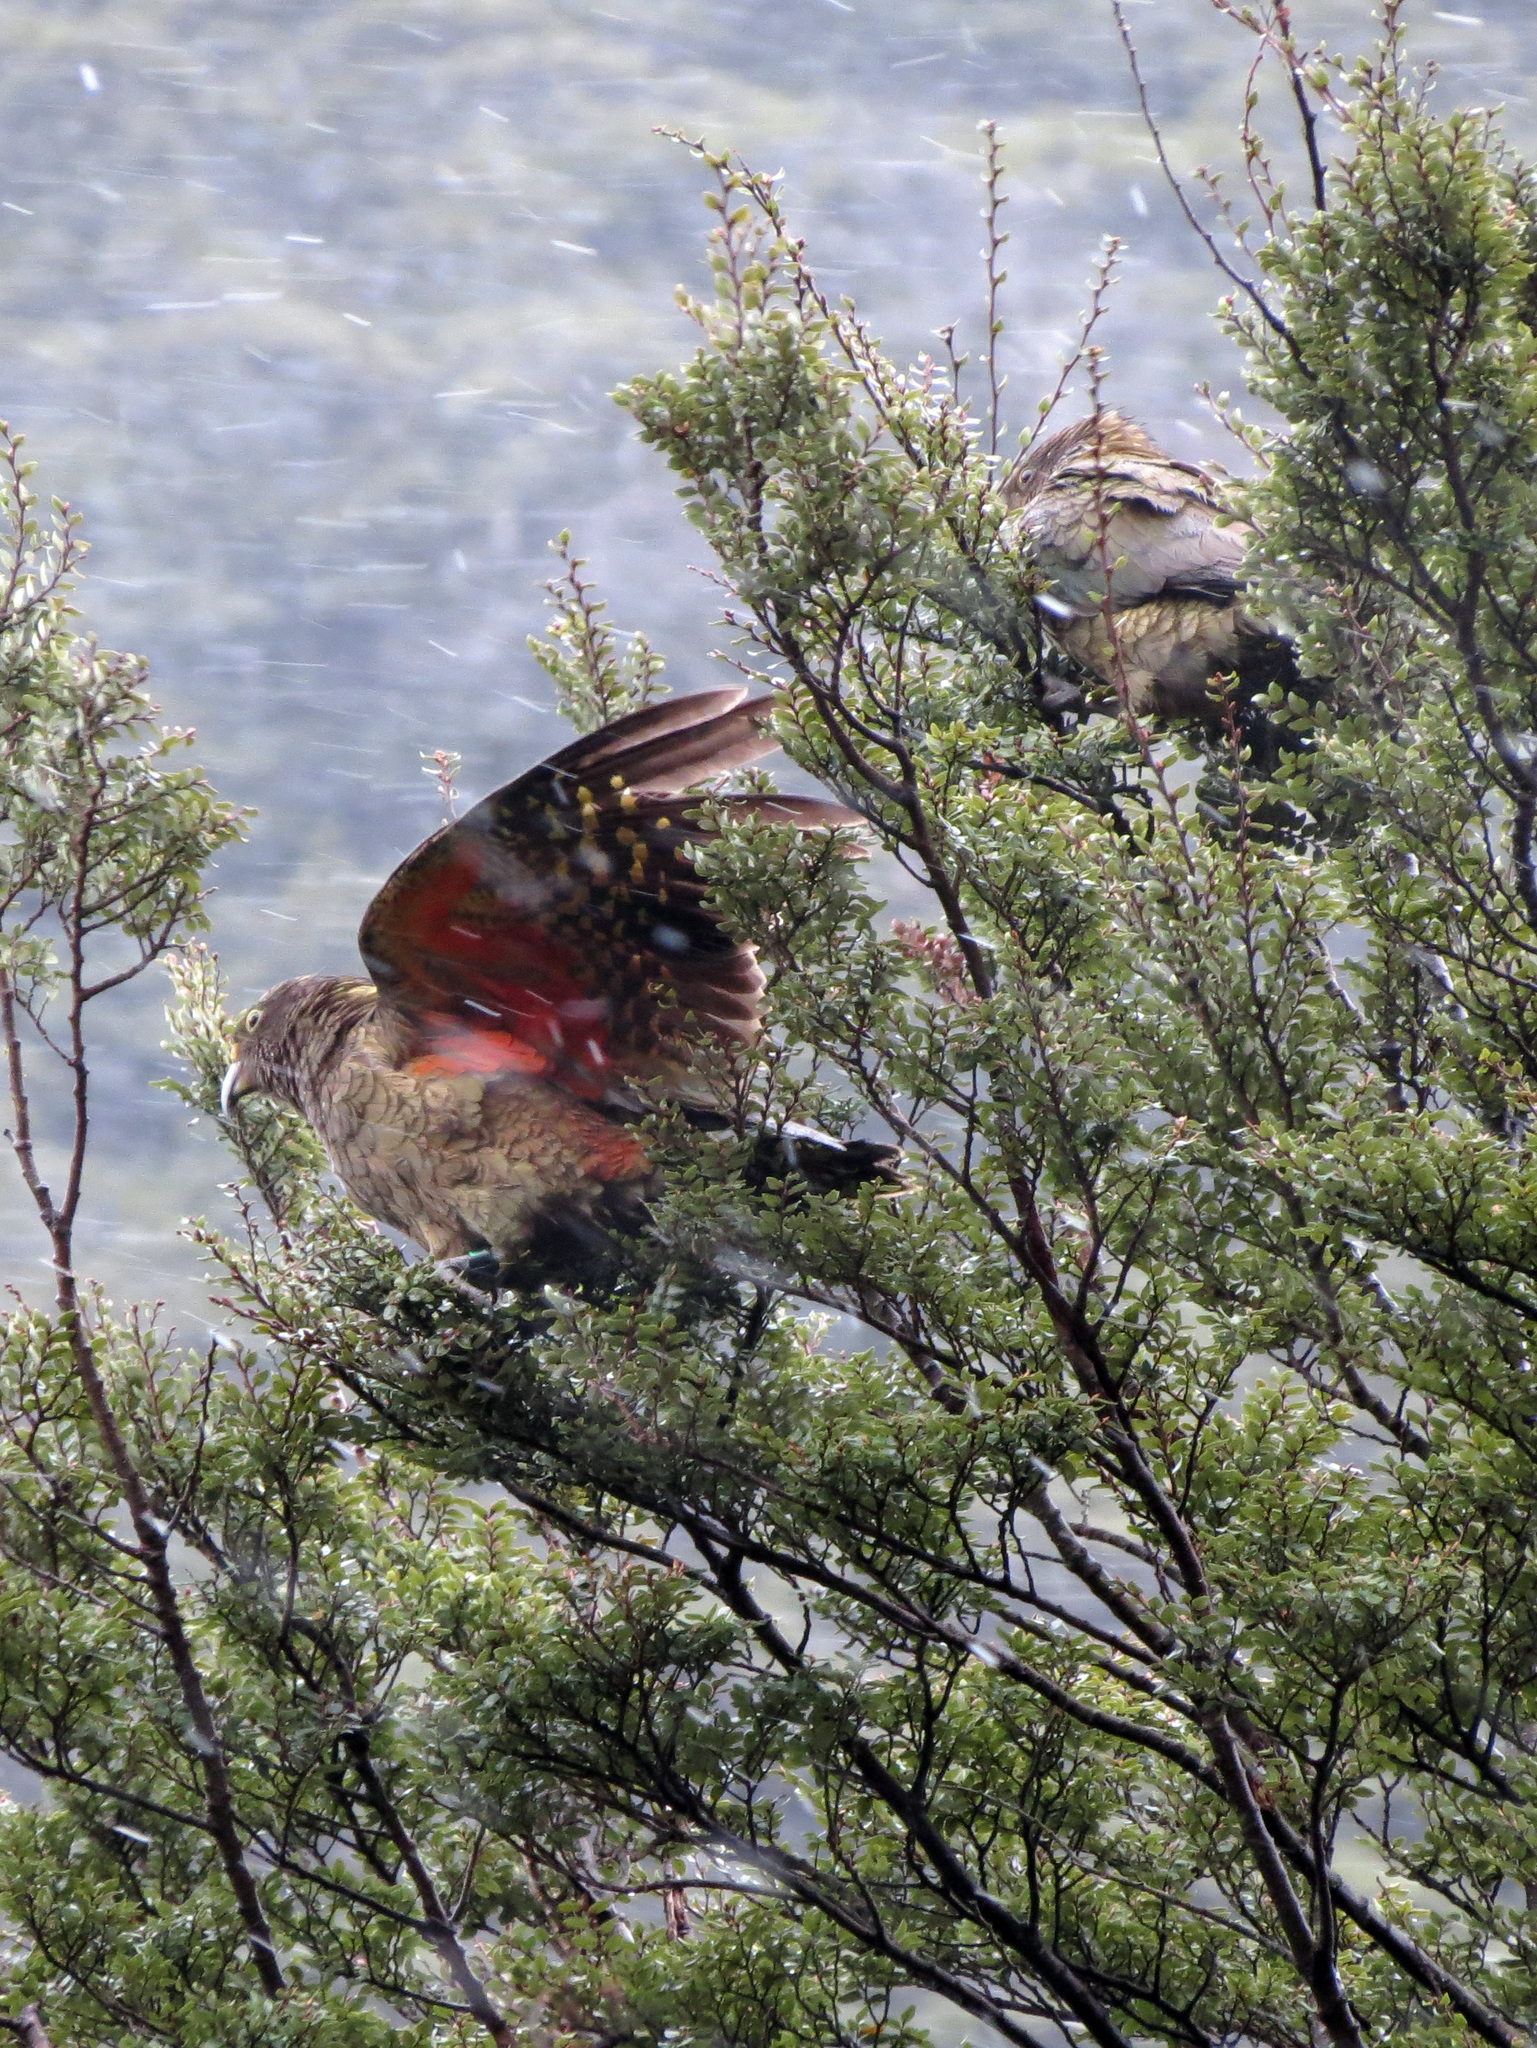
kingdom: Animalia
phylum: Chordata
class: Aves
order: Psittaciformes
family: Psittacidae
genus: Nestor
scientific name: Nestor notabilis
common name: Kea
